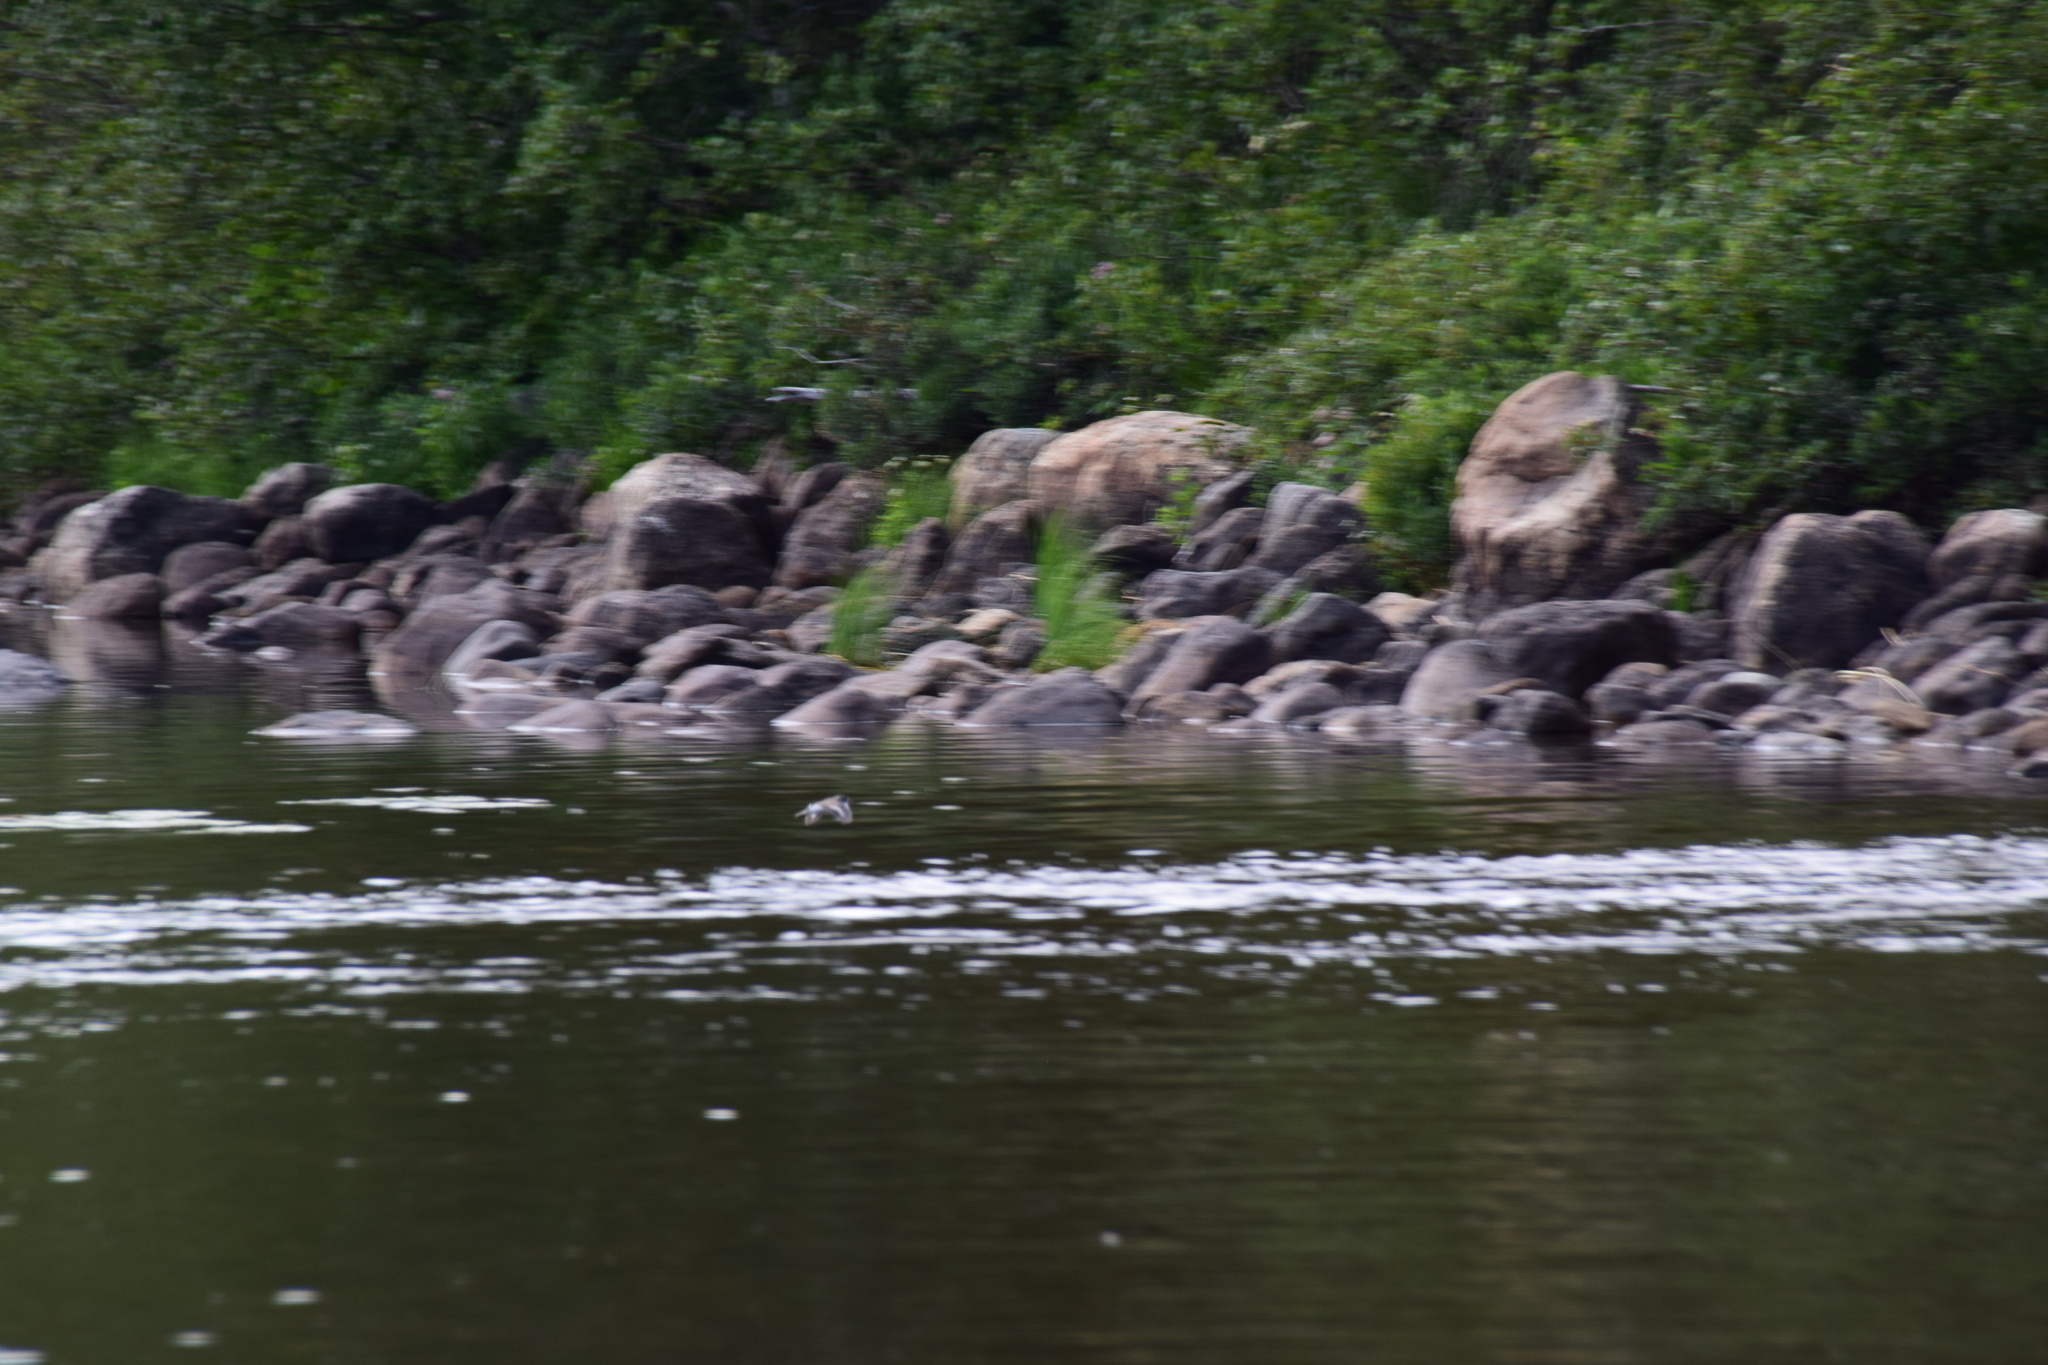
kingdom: Animalia
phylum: Chordata
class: Aves
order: Charadriiformes
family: Scolopacidae
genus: Actitis
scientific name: Actitis macularius
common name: Spotted sandpiper
